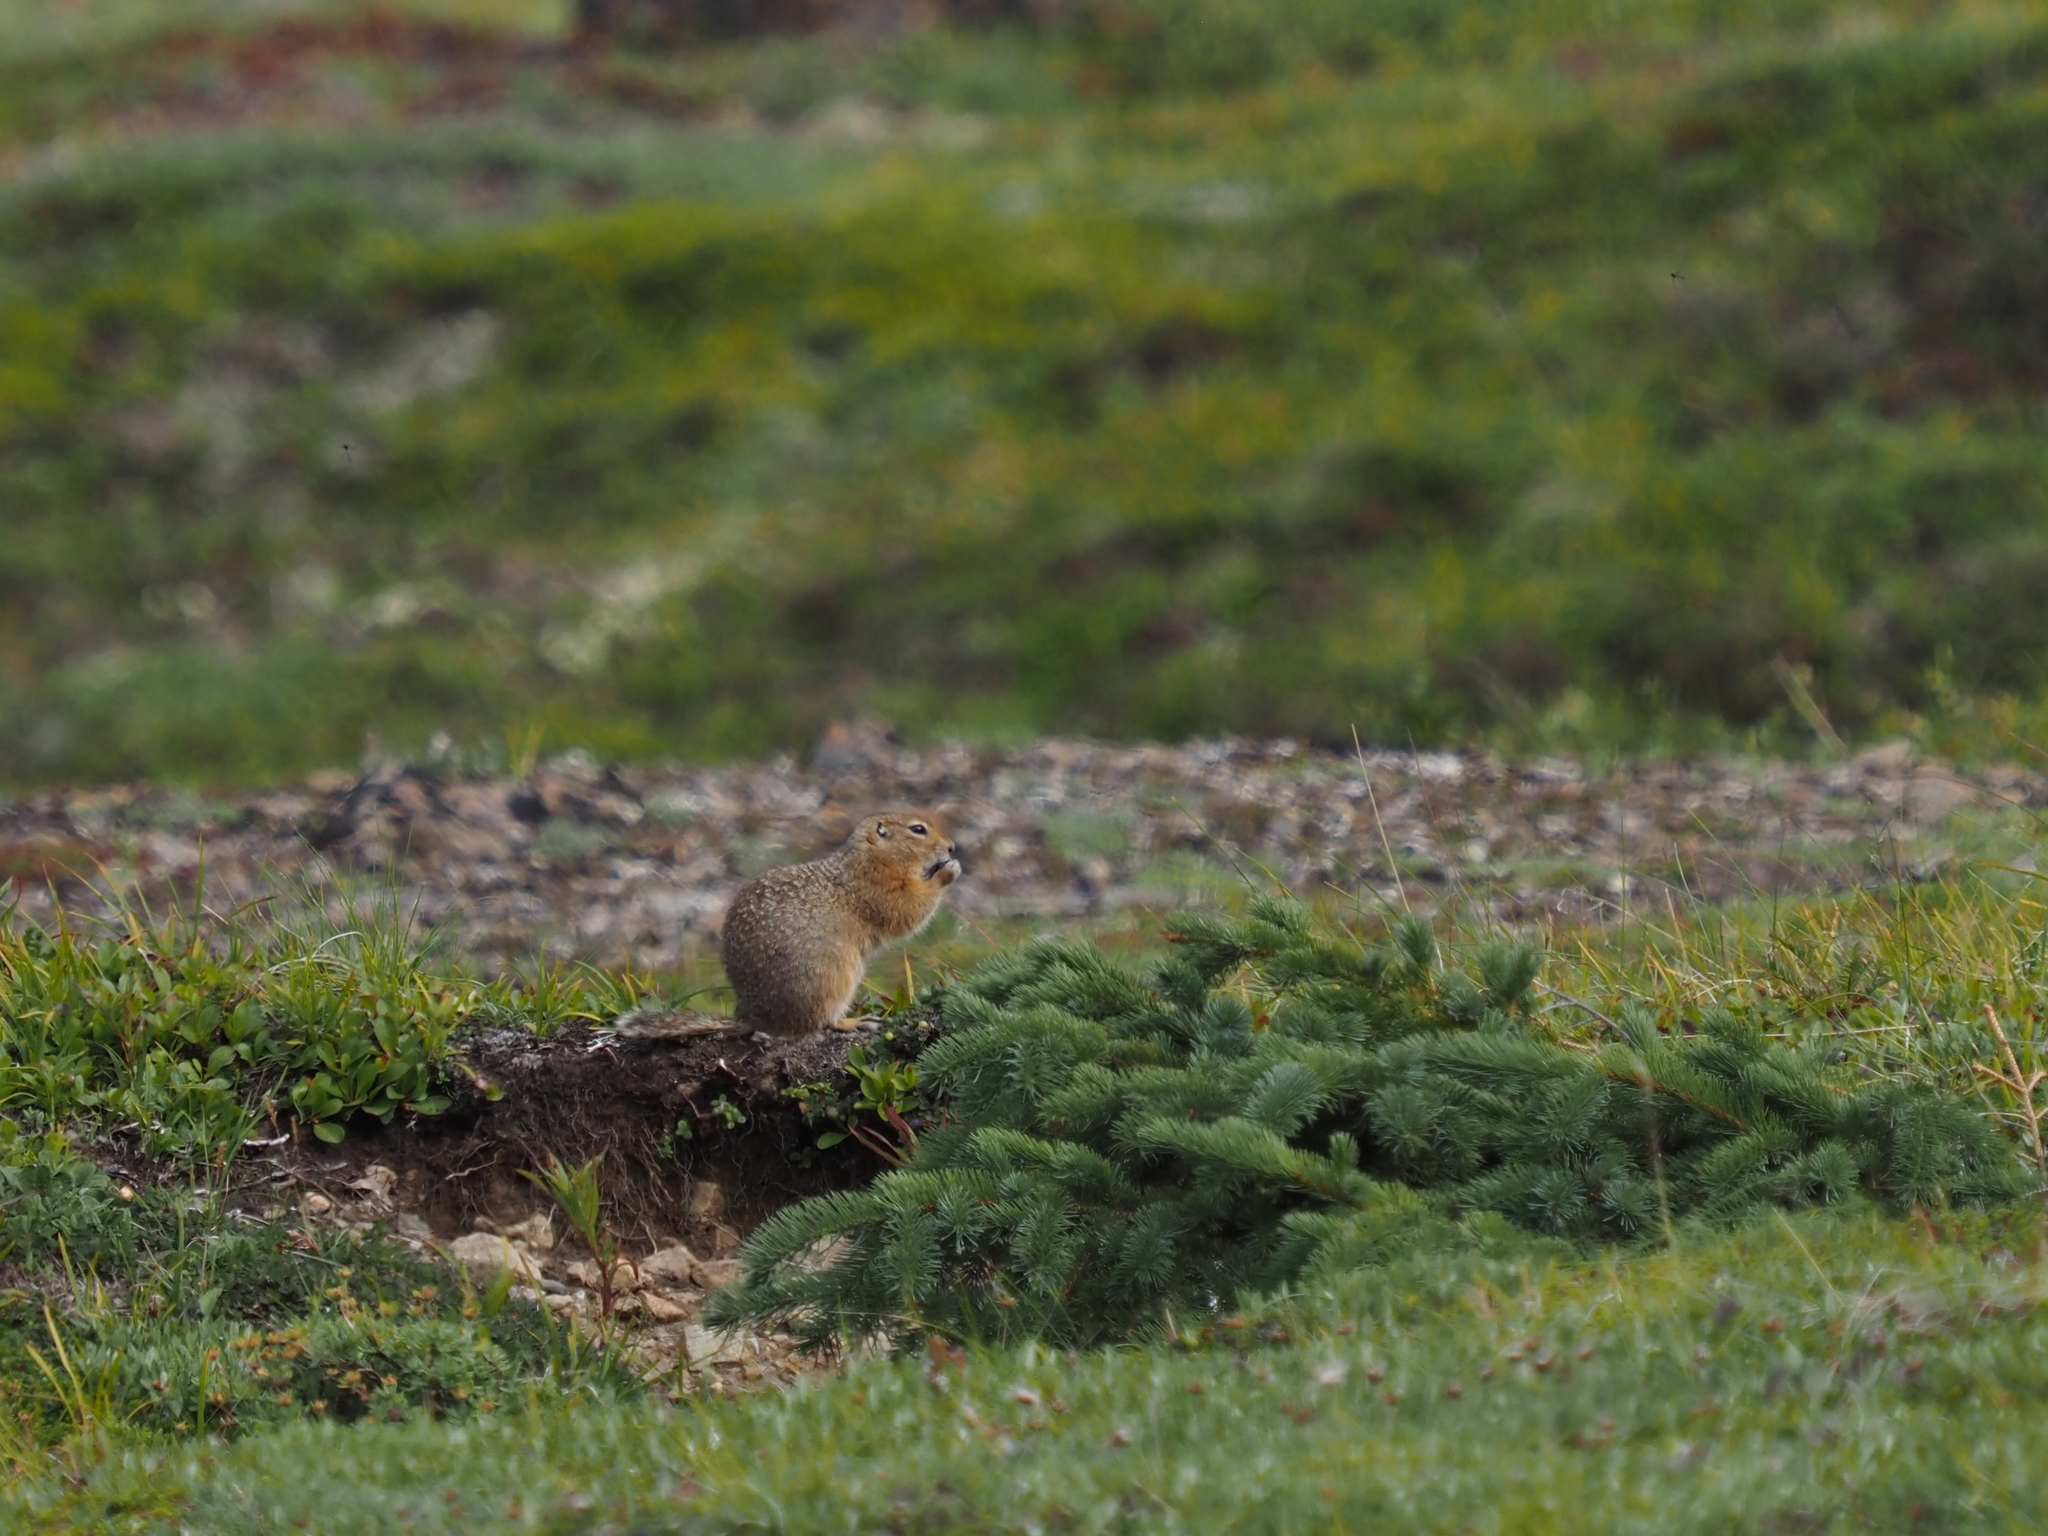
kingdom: Animalia
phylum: Chordata
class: Mammalia
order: Rodentia
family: Sciuridae
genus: Urocitellus
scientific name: Urocitellus parryii
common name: Arctic ground squirrel
